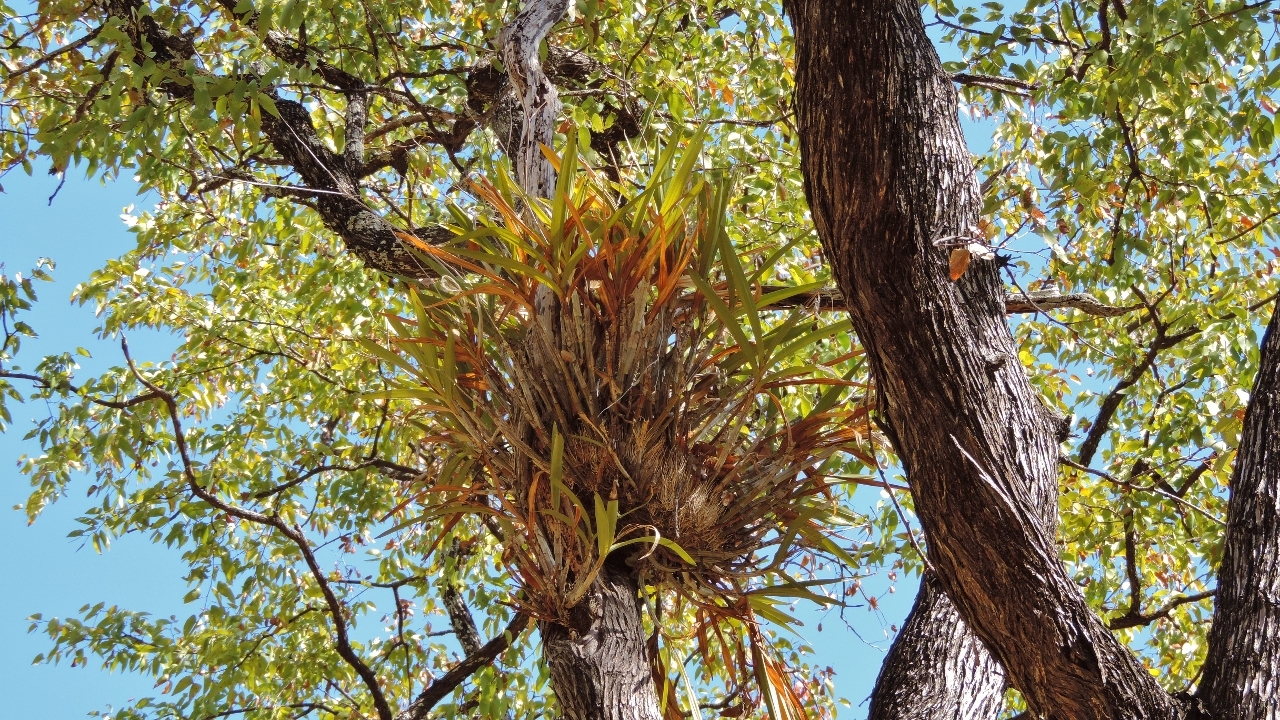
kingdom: Plantae
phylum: Tracheophyta
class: Liliopsida
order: Asparagales
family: Orchidaceae
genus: Ansellia
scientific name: Ansellia africana
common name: African ansellia
